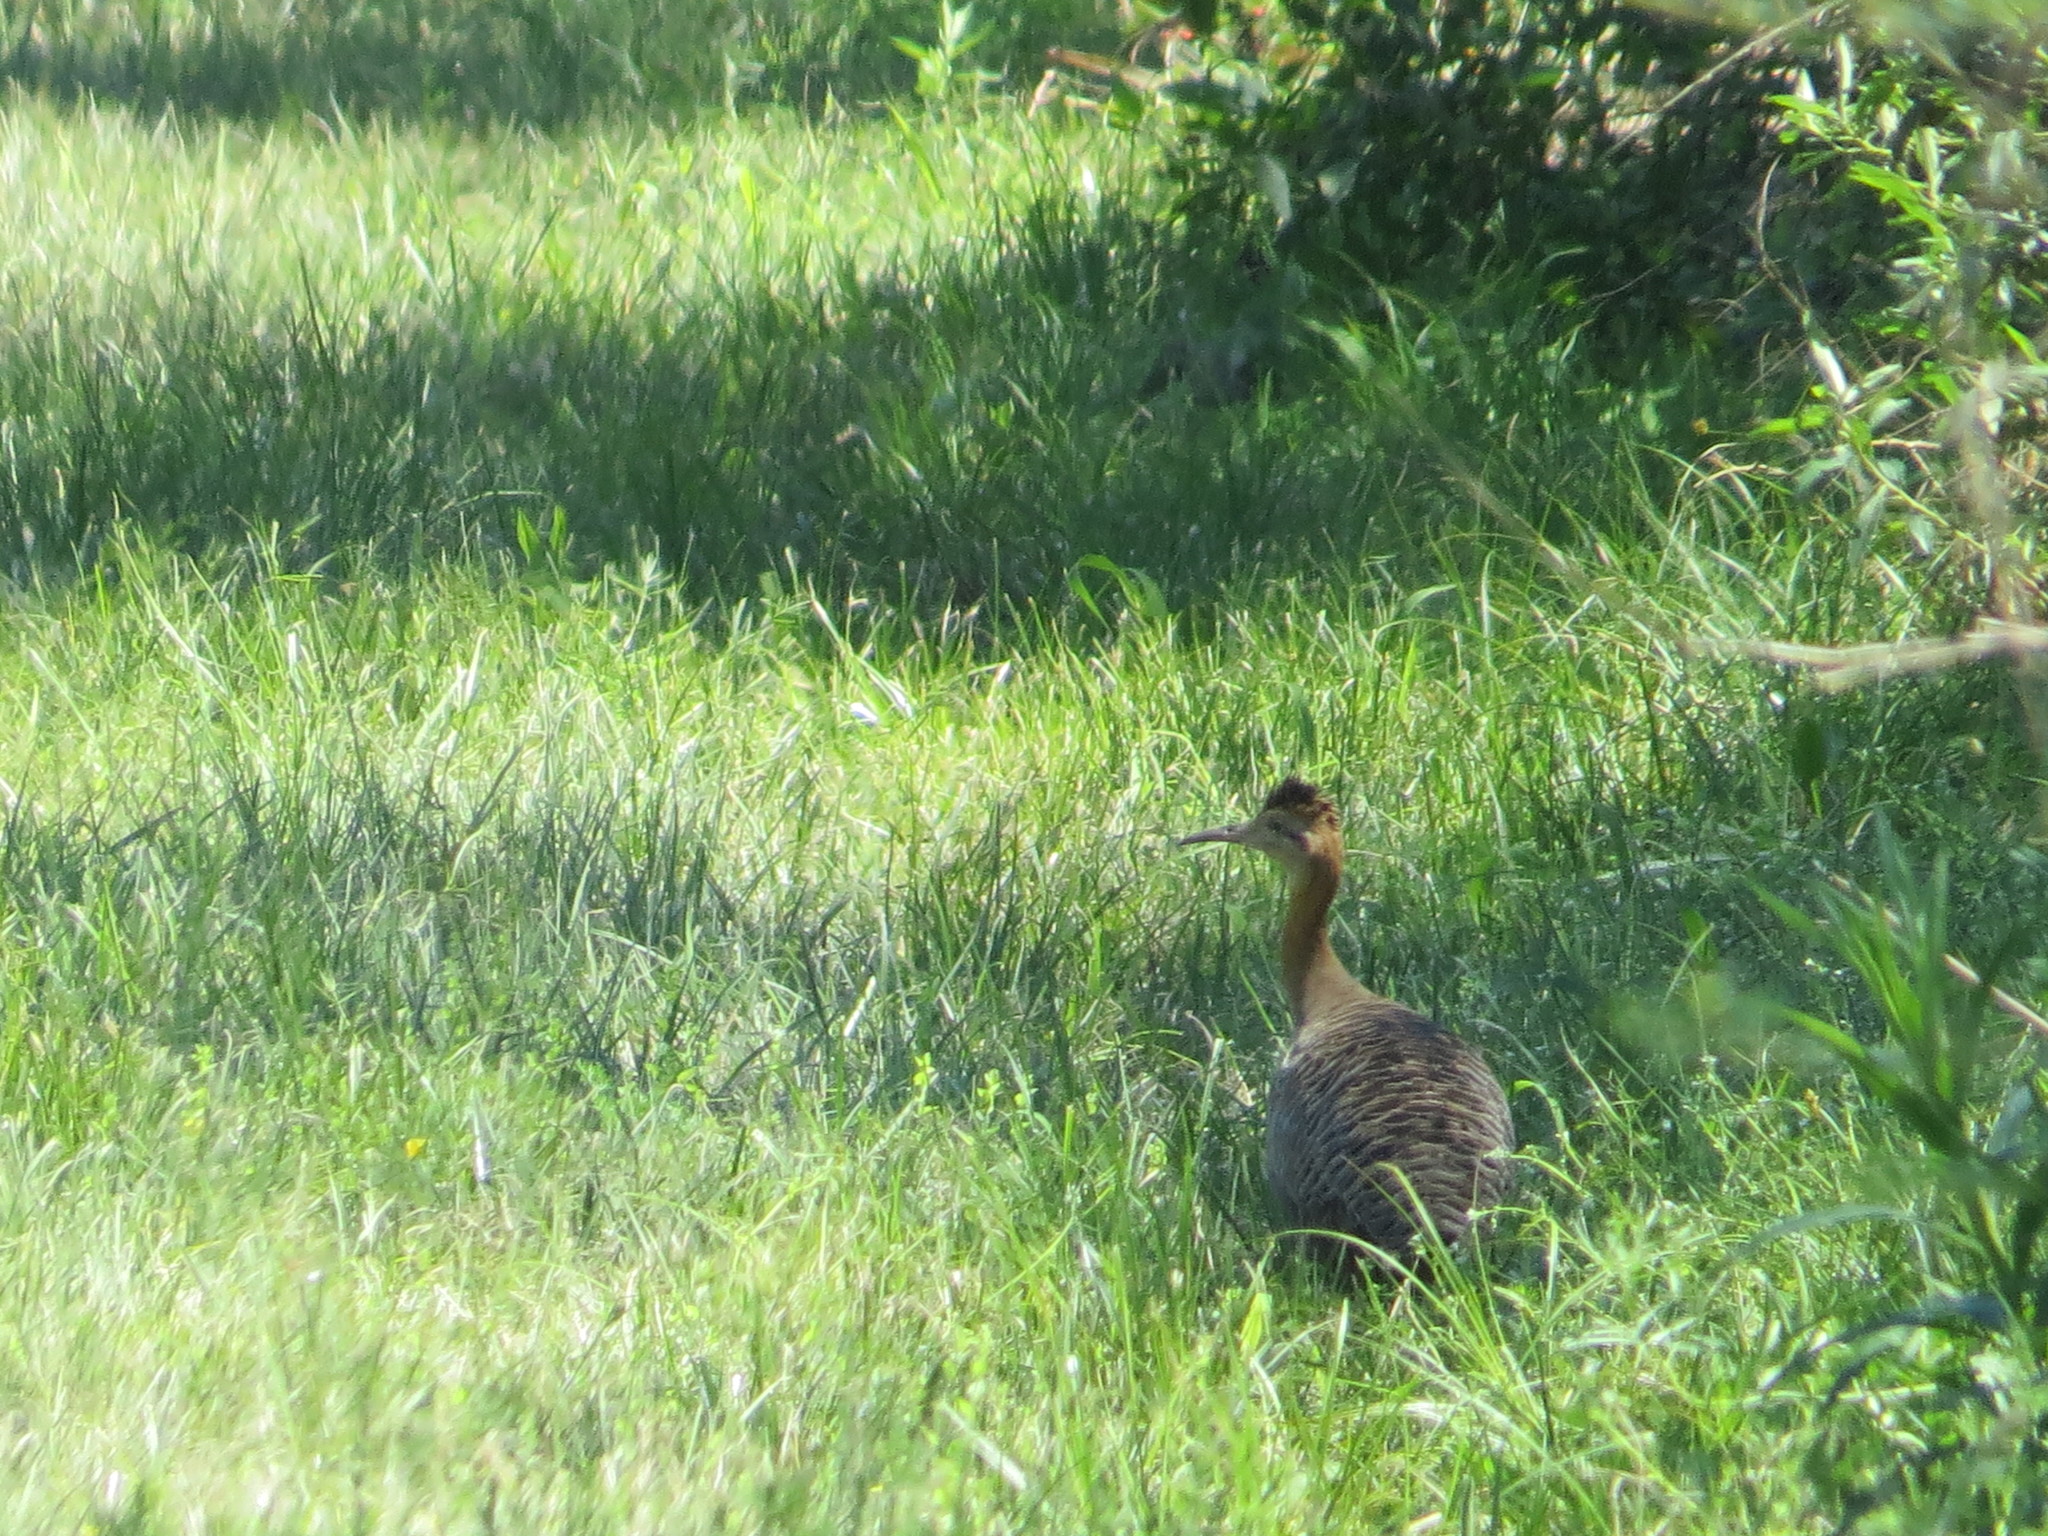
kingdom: Animalia
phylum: Chordata
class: Aves
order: Tinamiformes
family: Tinamidae
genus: Rhynchotus
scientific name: Rhynchotus rufescens
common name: Red-winged tinamou
